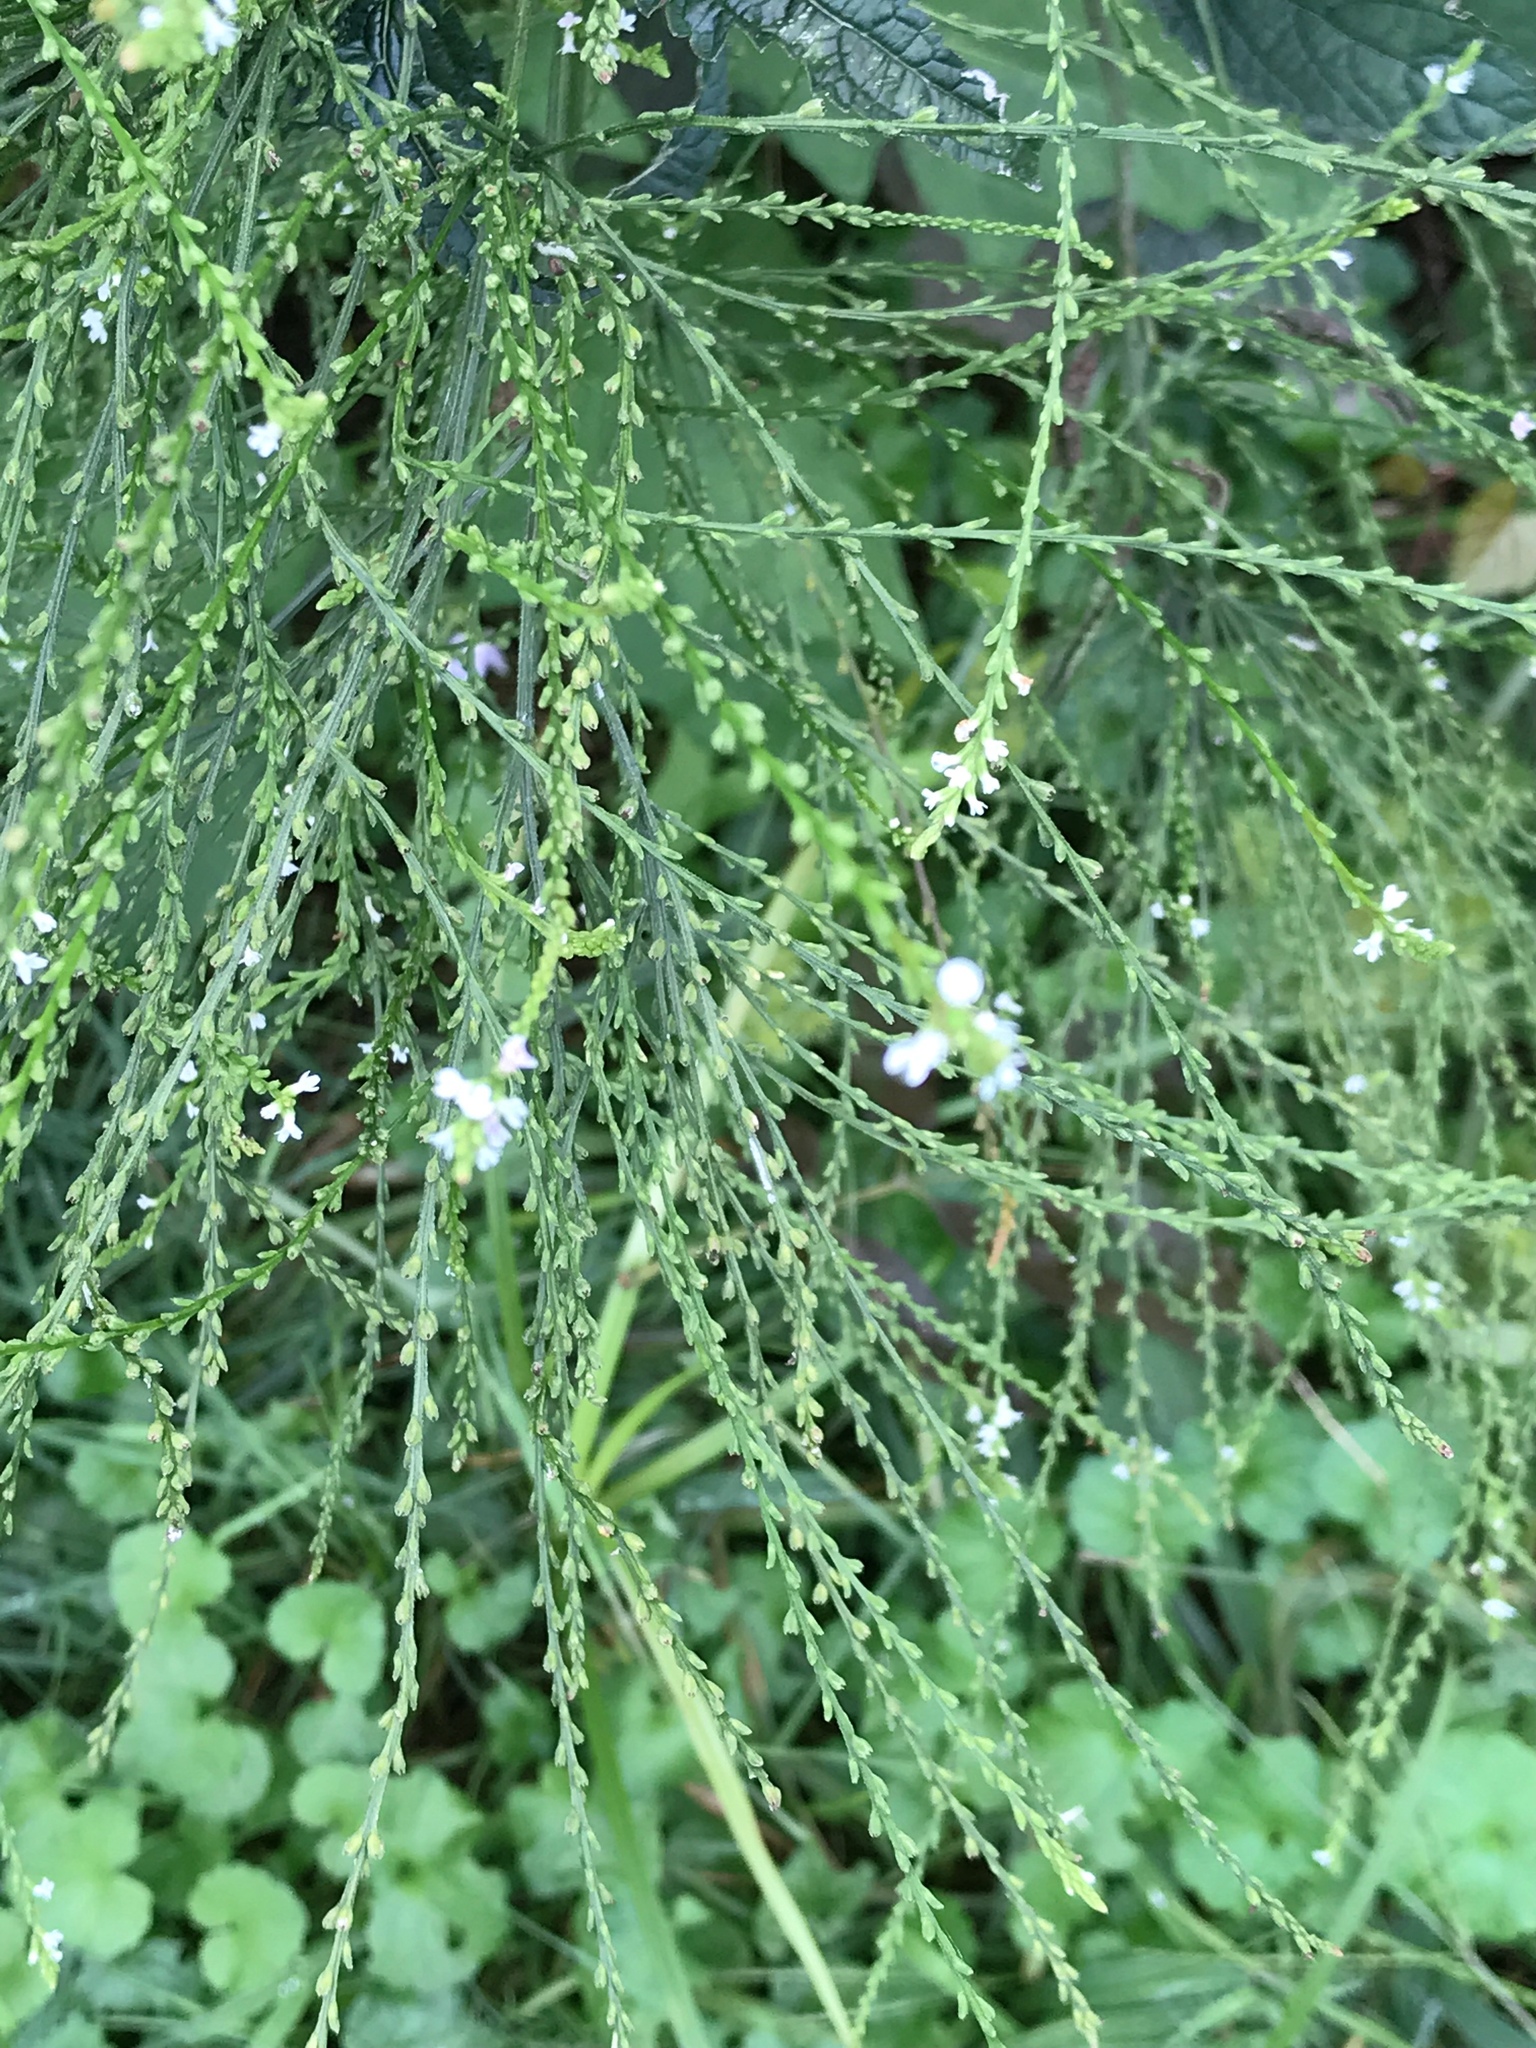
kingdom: Plantae
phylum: Tracheophyta
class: Magnoliopsida
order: Lamiales
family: Verbenaceae
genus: Verbena
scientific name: Verbena urticifolia
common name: Nettle-leaved vervain
